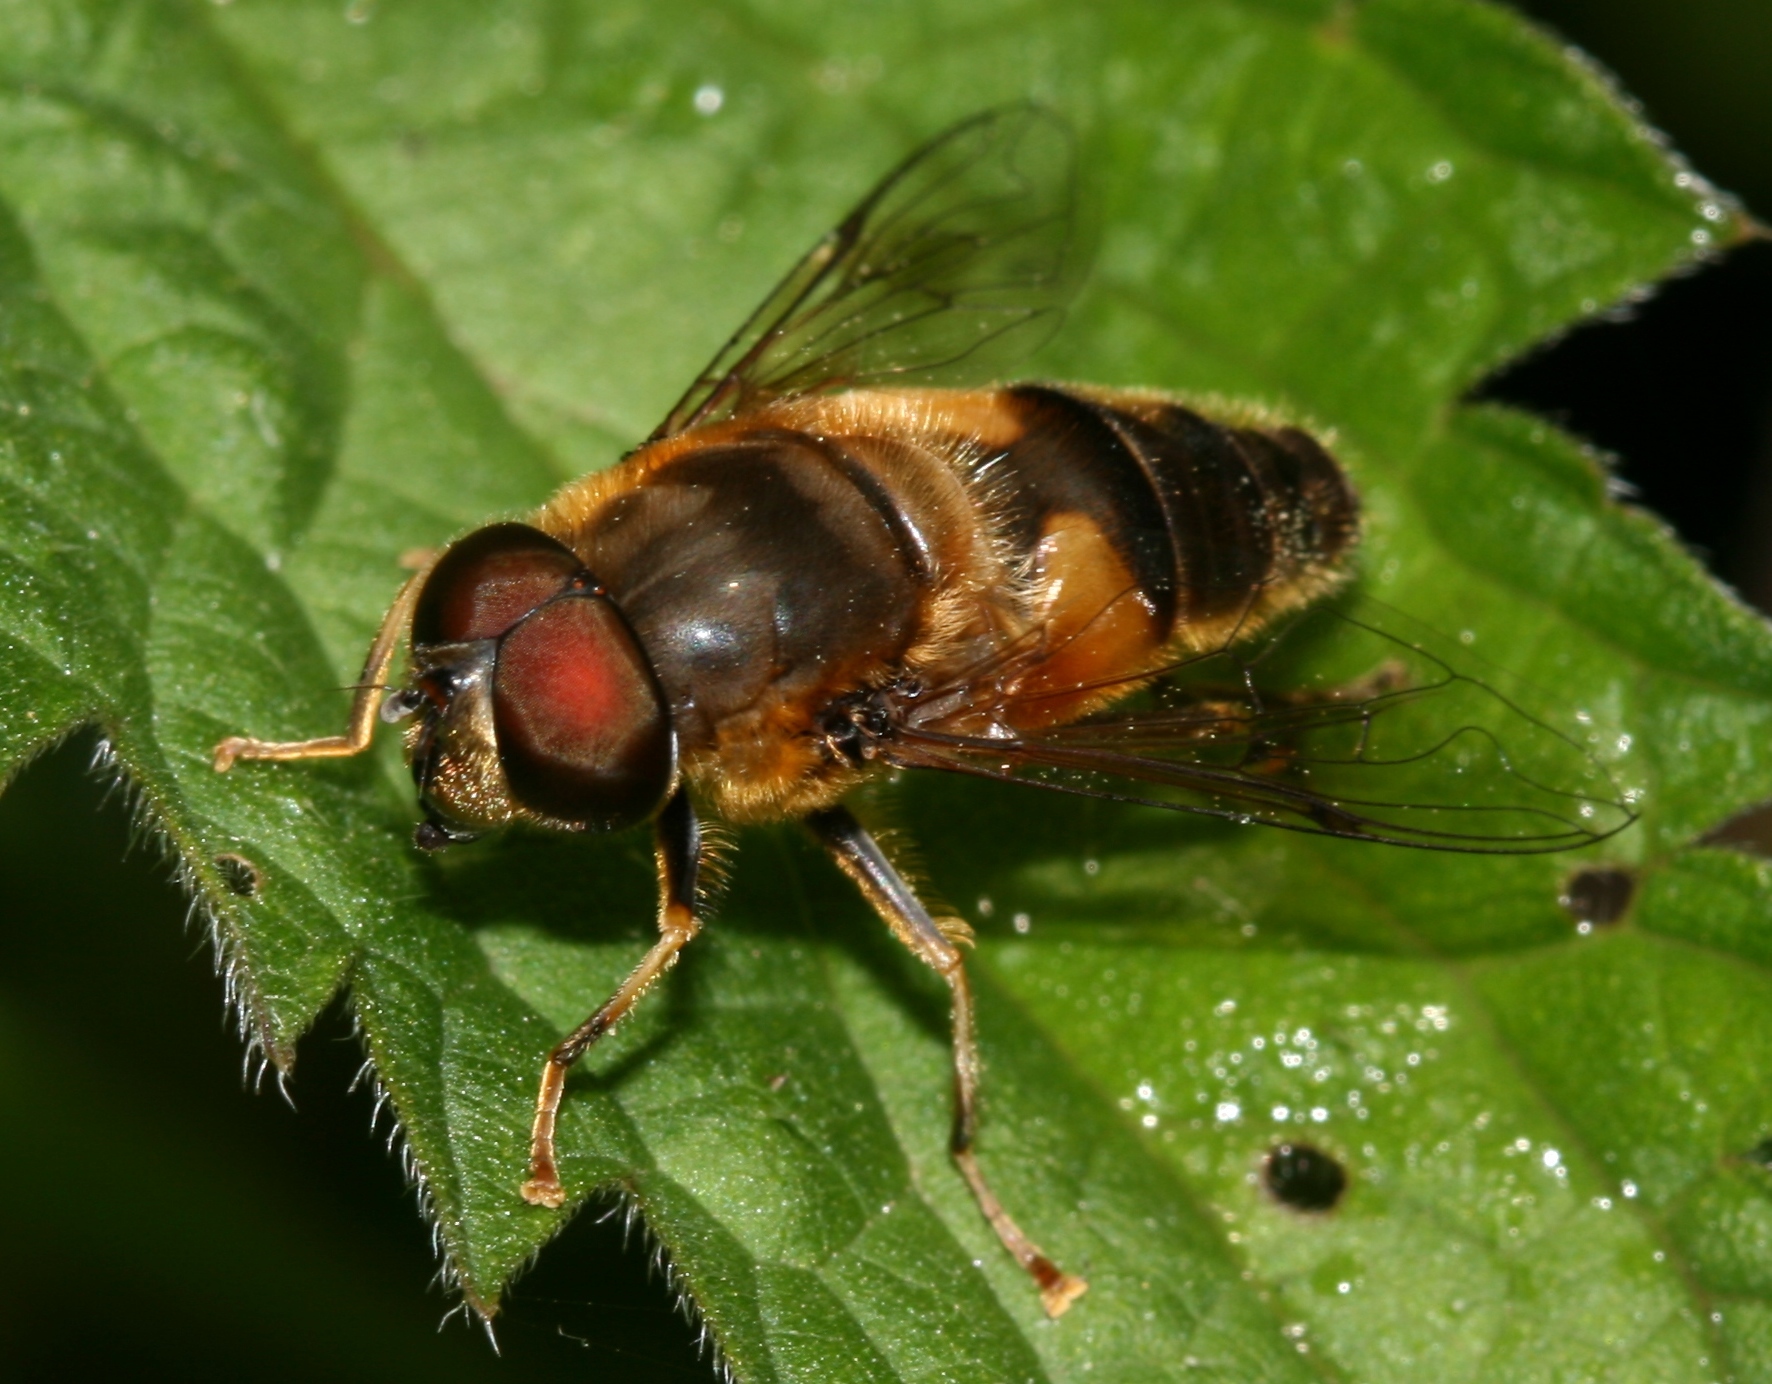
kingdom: Animalia
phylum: Arthropoda
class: Insecta
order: Diptera
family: Syrphidae
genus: Eristalis
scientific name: Eristalis pertinax
